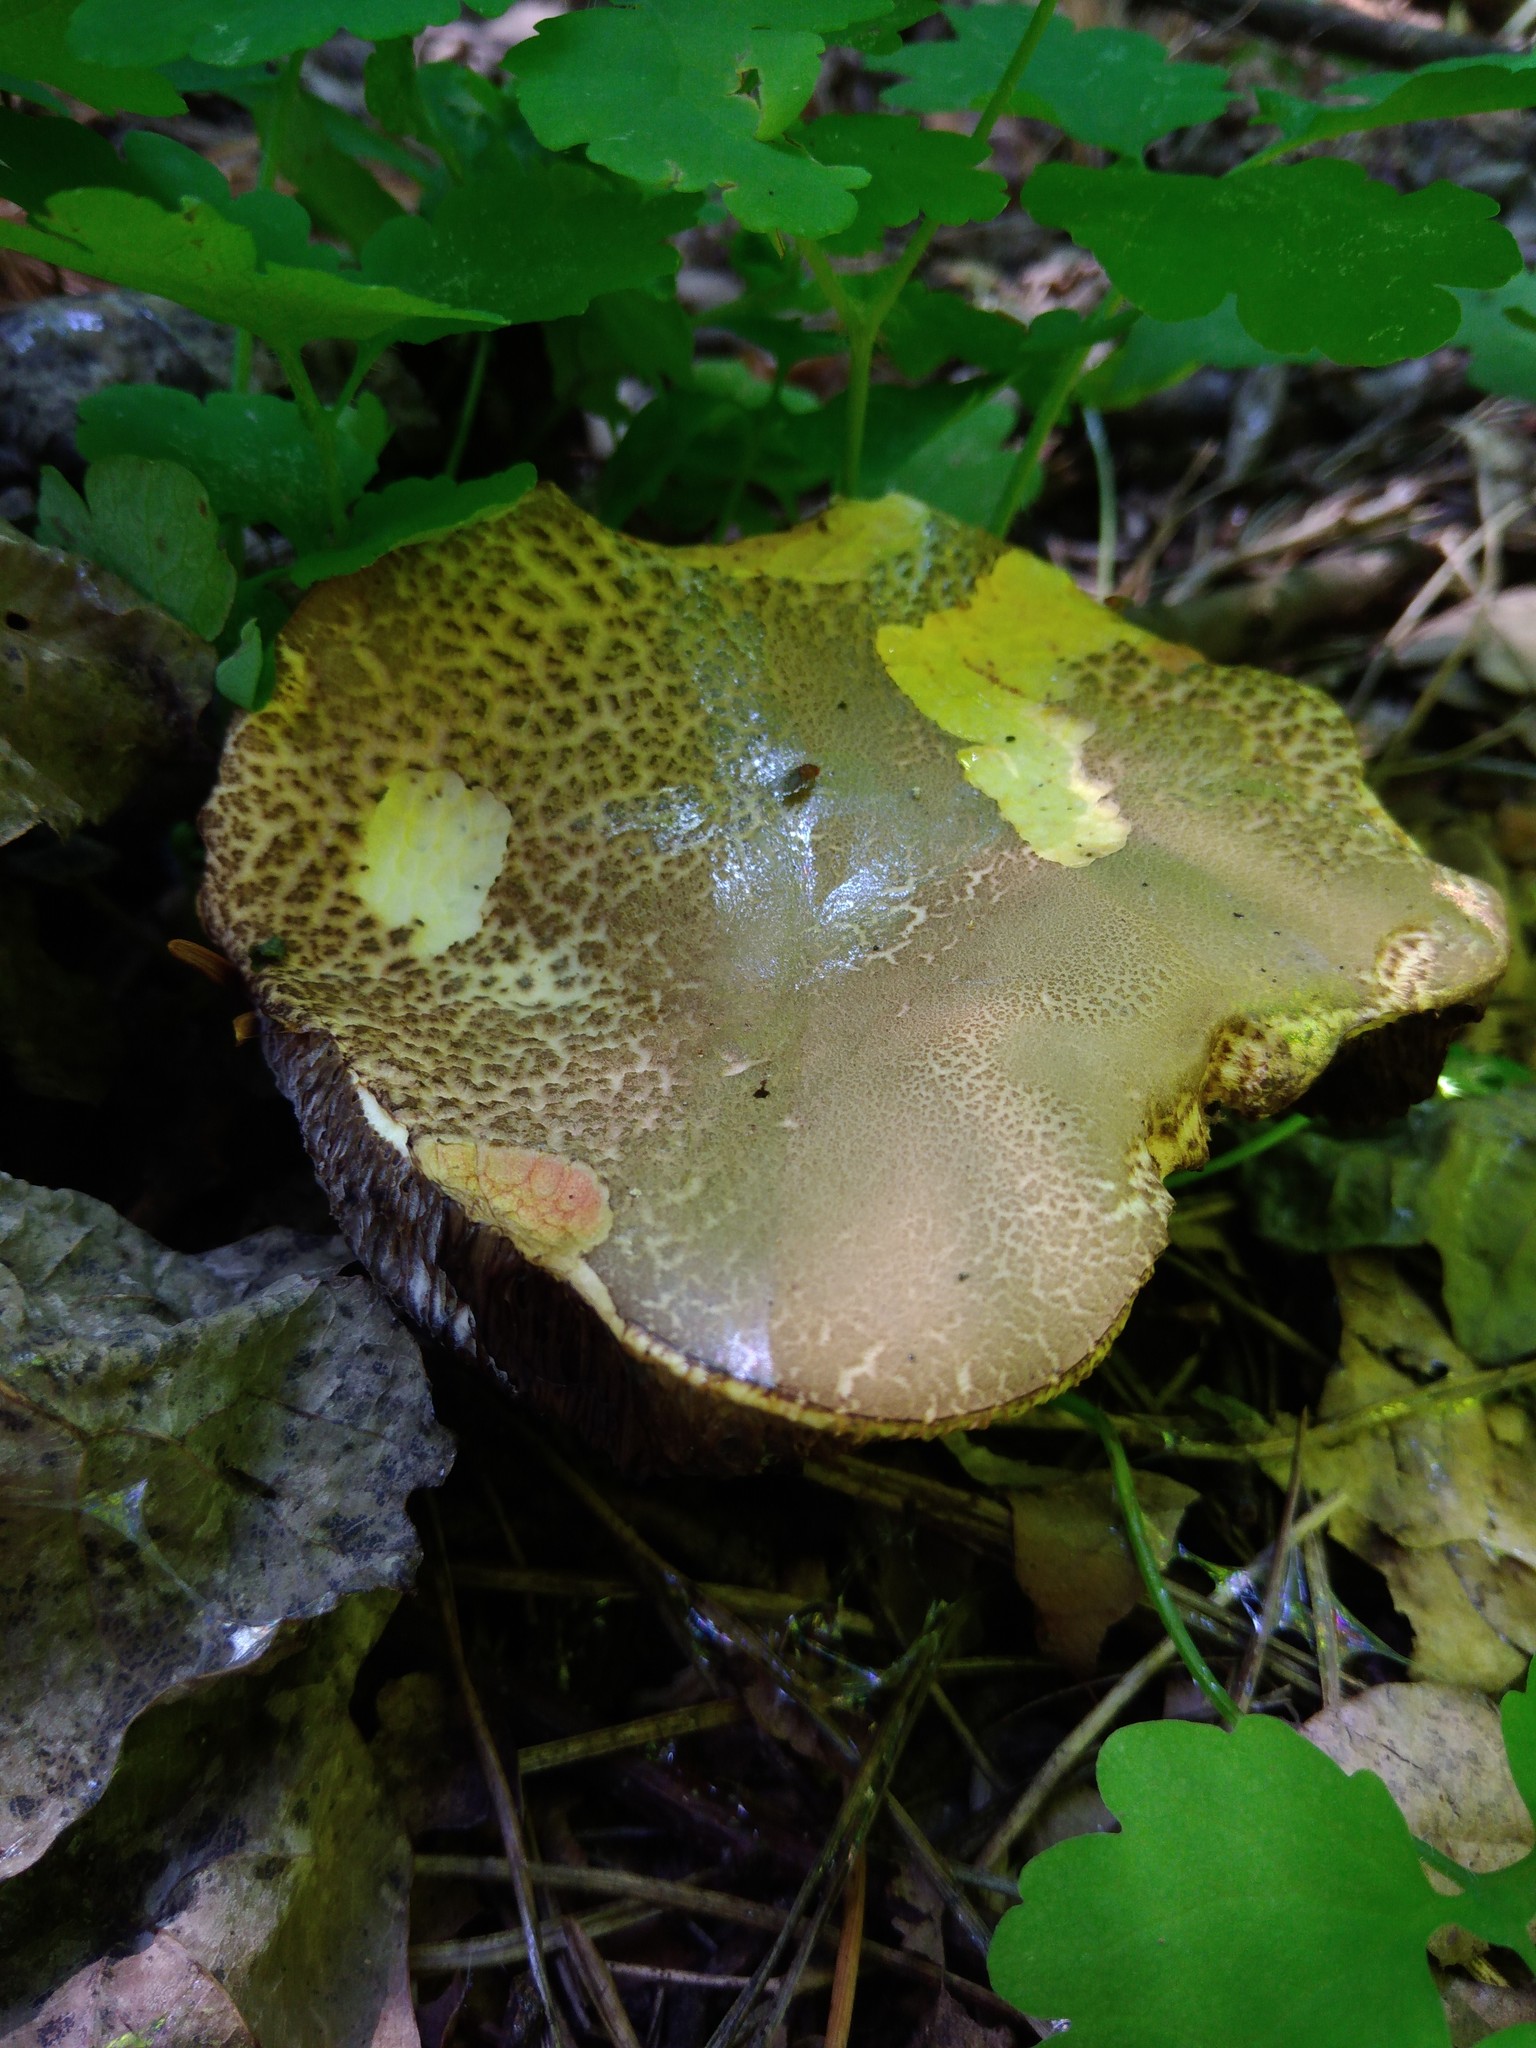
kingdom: Fungi
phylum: Basidiomycota
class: Agaricomycetes
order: Boletales
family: Boletaceae
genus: Xerocomus
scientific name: Xerocomus subtomentosus
